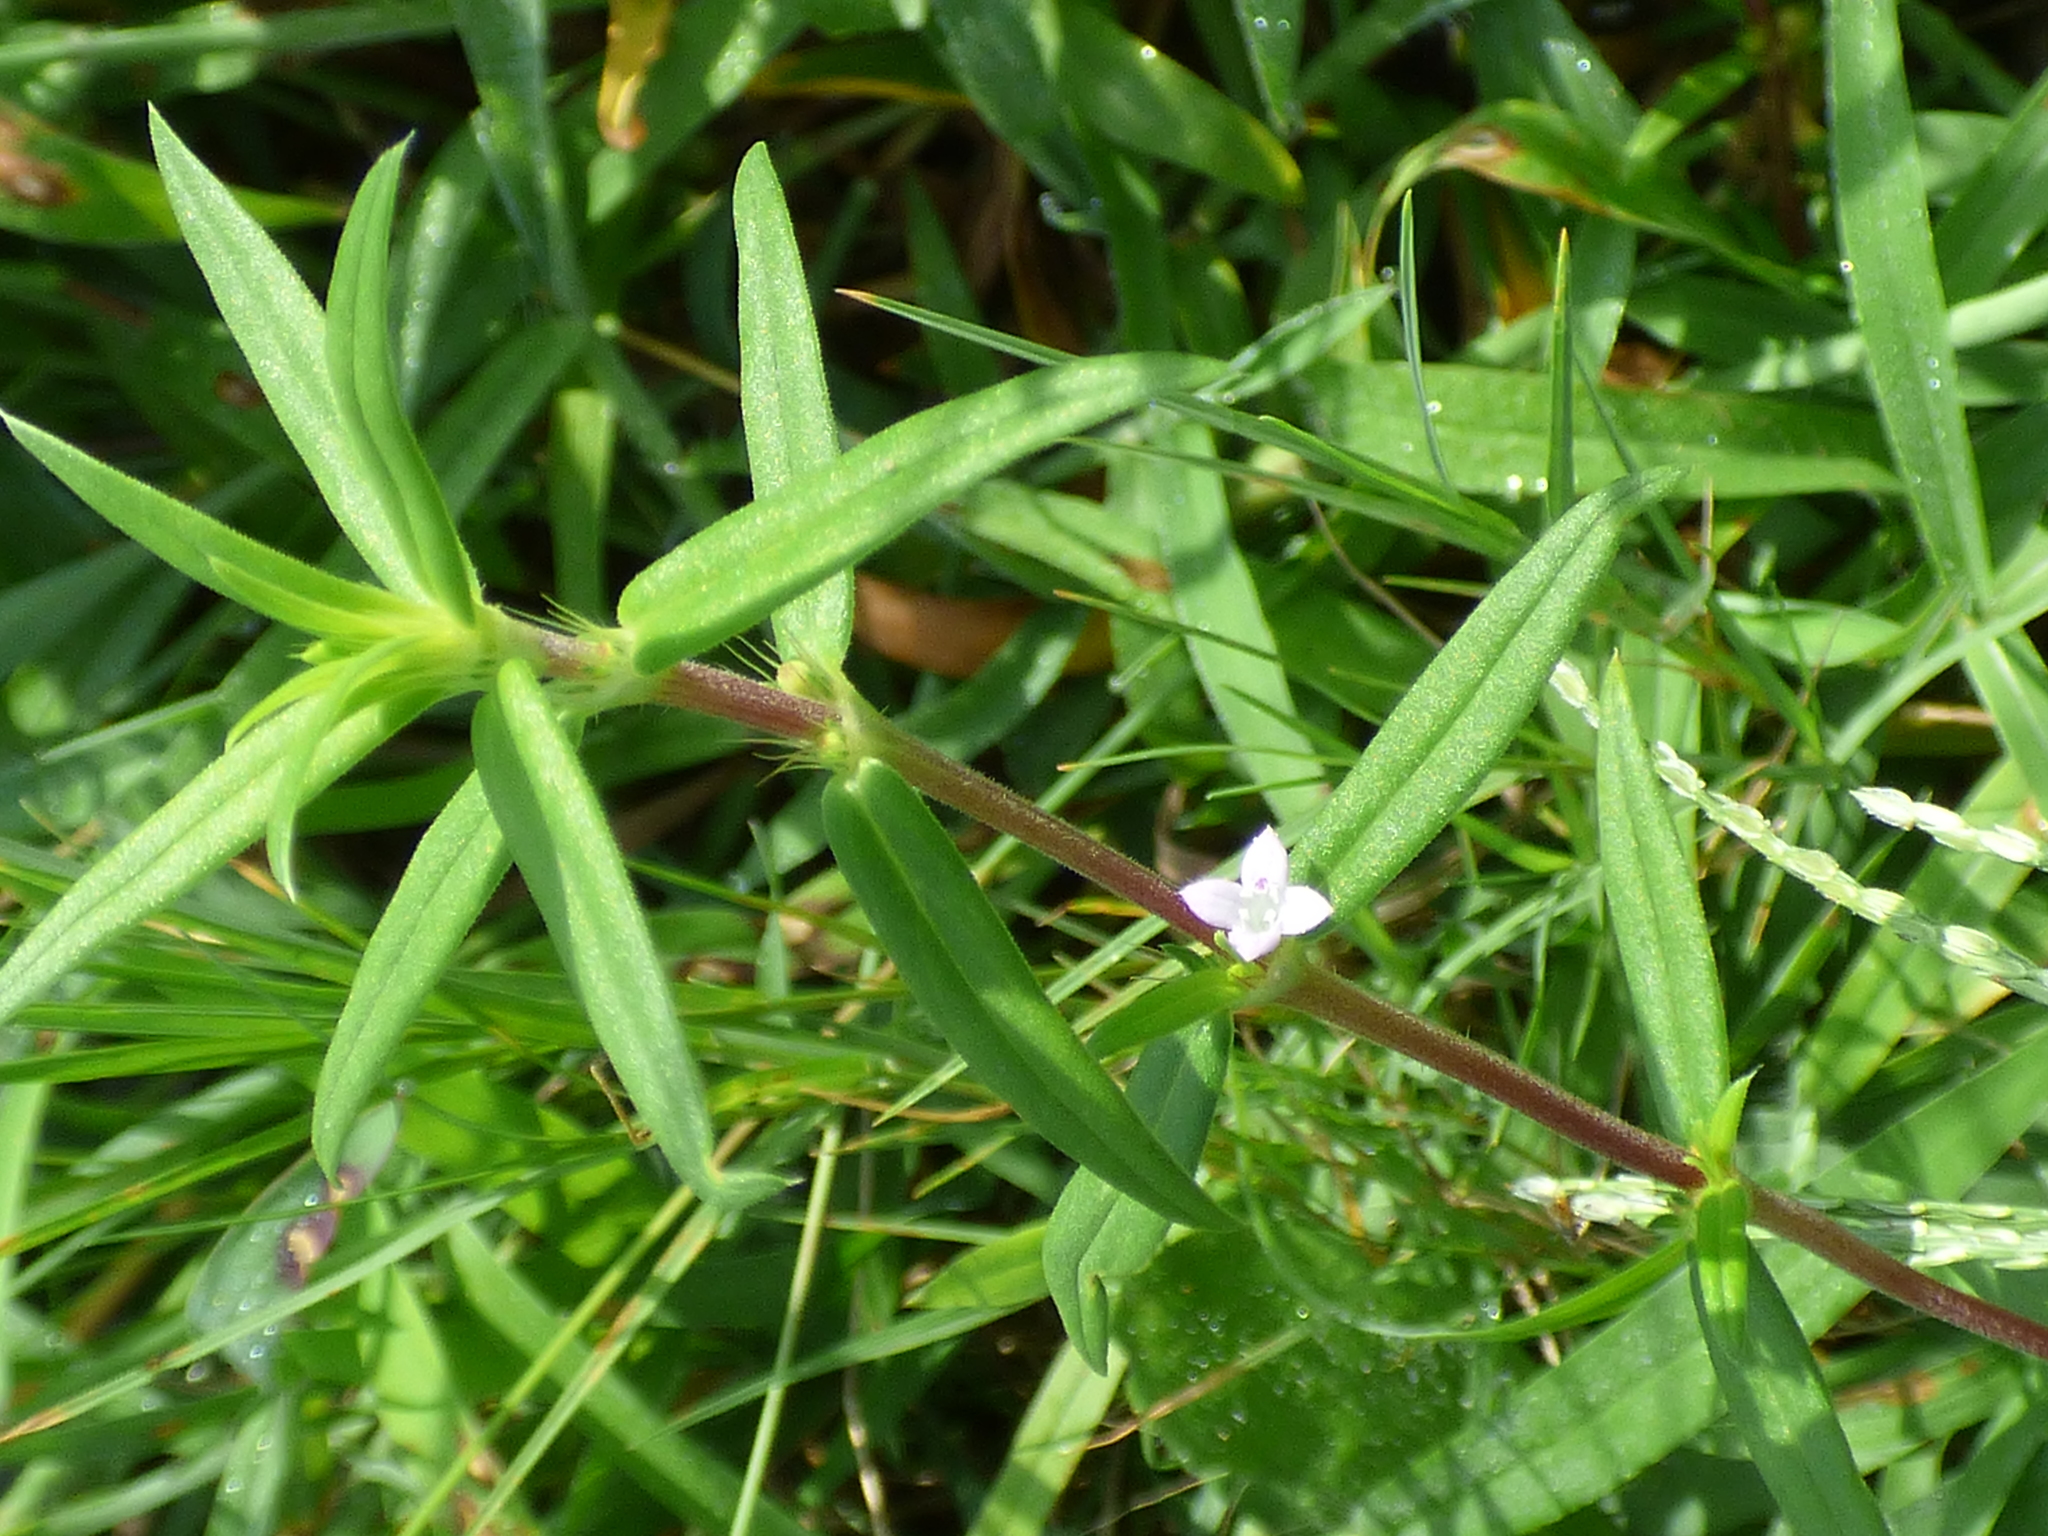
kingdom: Plantae
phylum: Tracheophyta
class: Magnoliopsida
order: Gentianales
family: Rubiaceae
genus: Hexasepalum
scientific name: Hexasepalum teres
